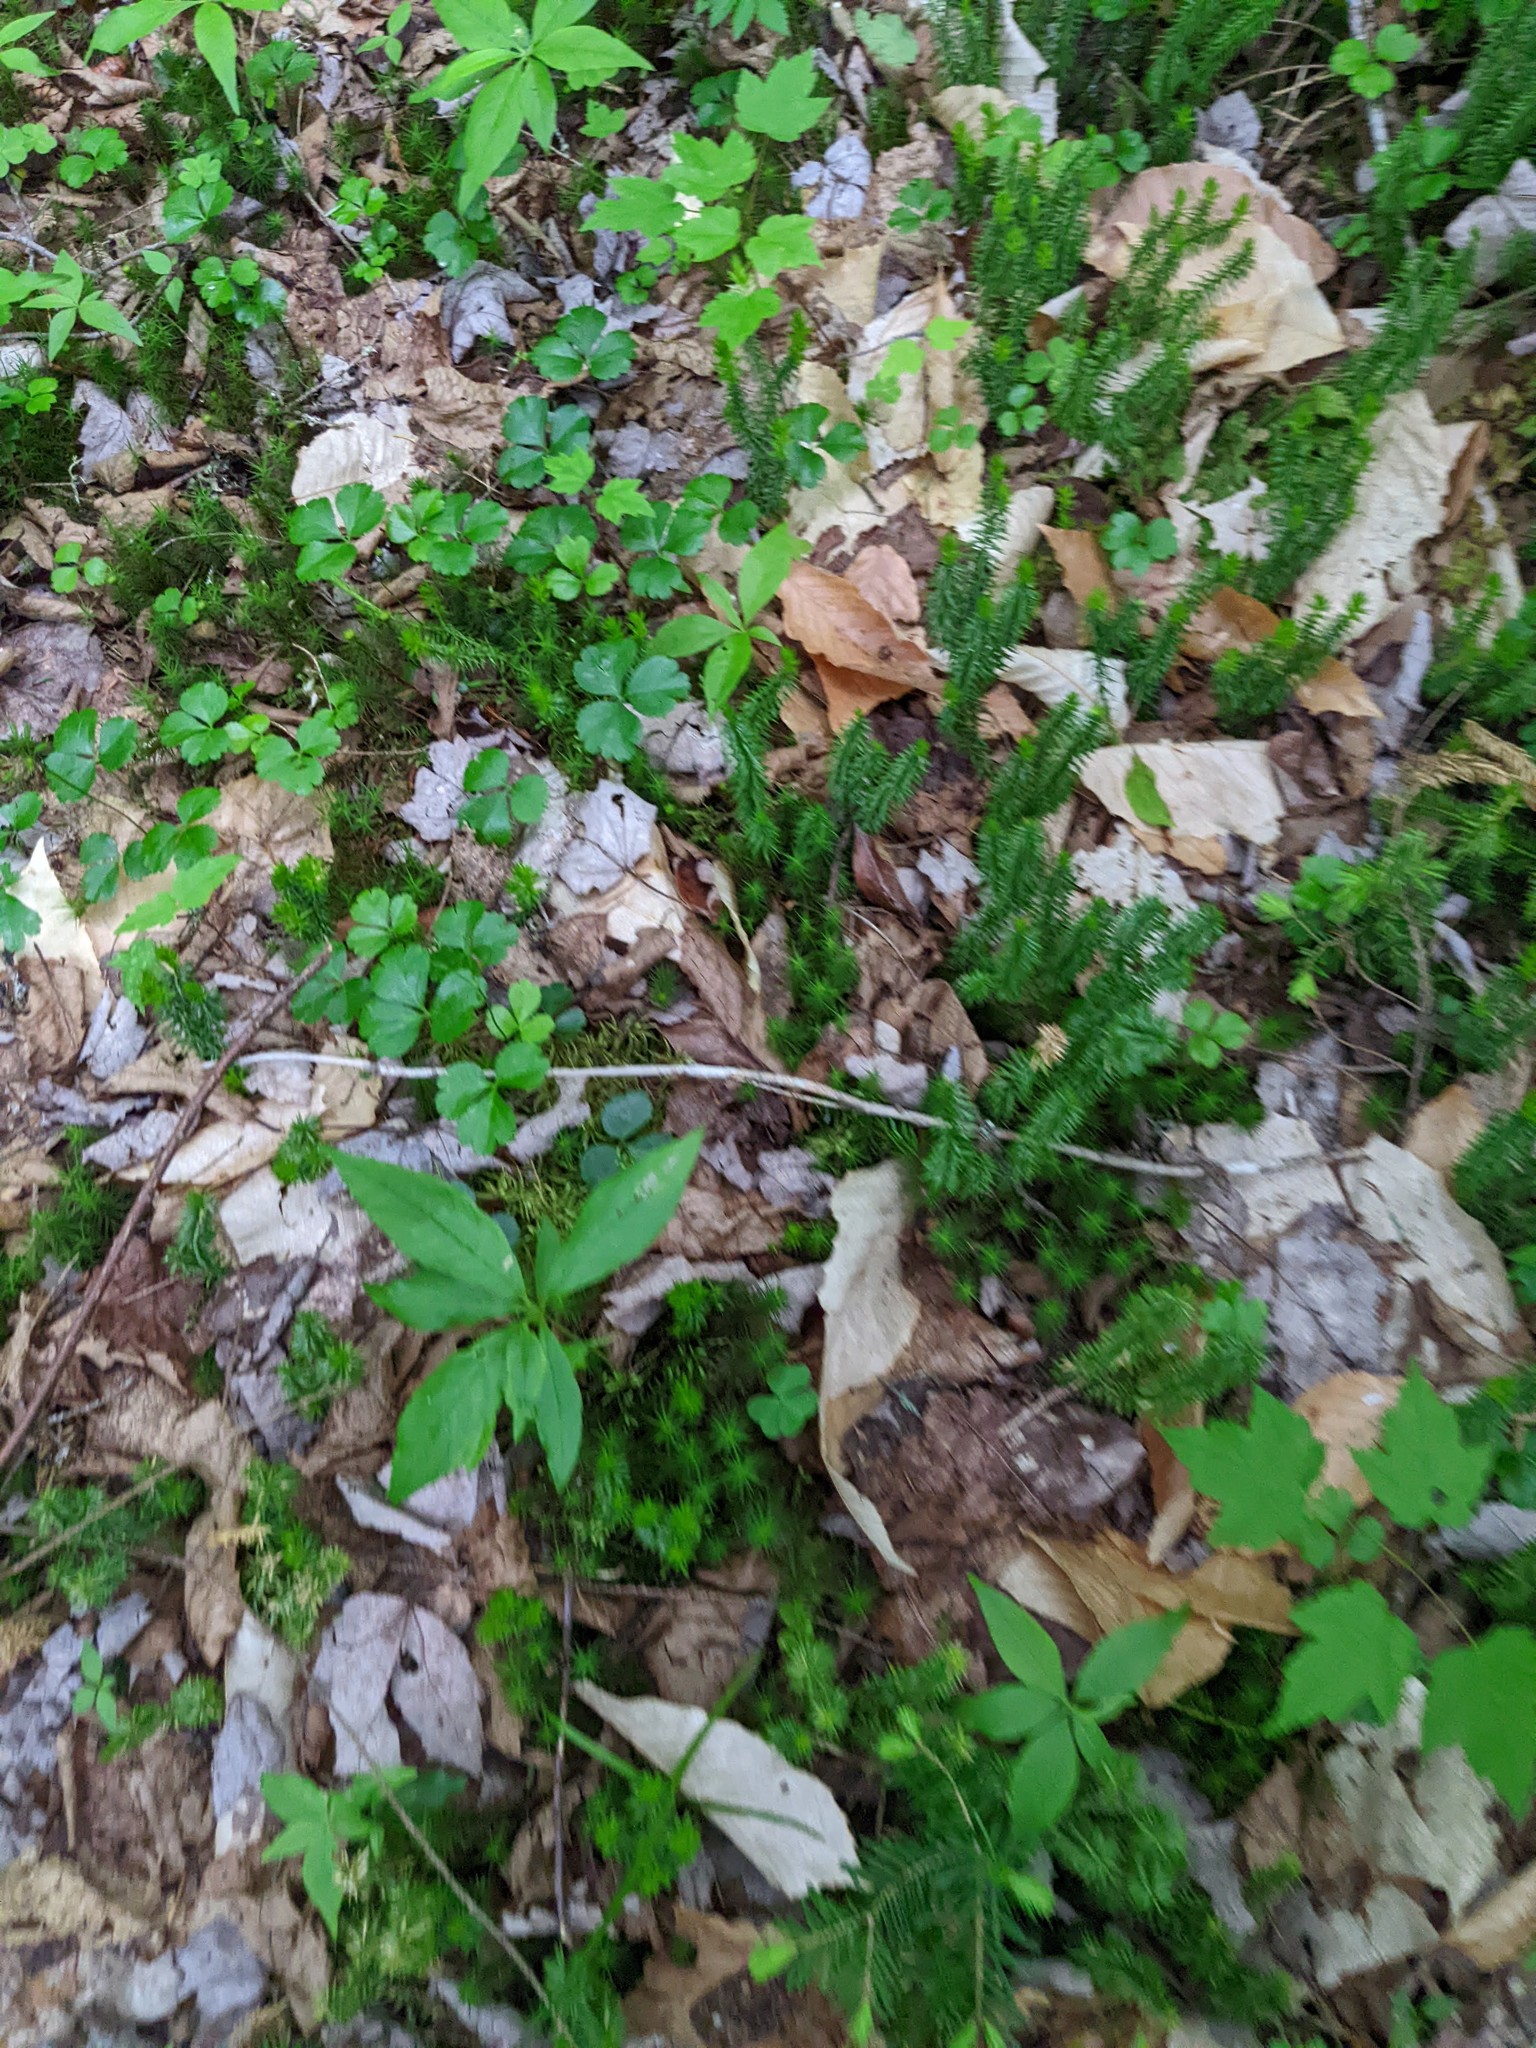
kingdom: Plantae
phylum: Tracheophyta
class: Magnoliopsida
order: Ericales
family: Primulaceae
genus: Lysimachia
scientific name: Lysimachia borealis
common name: American starflower
